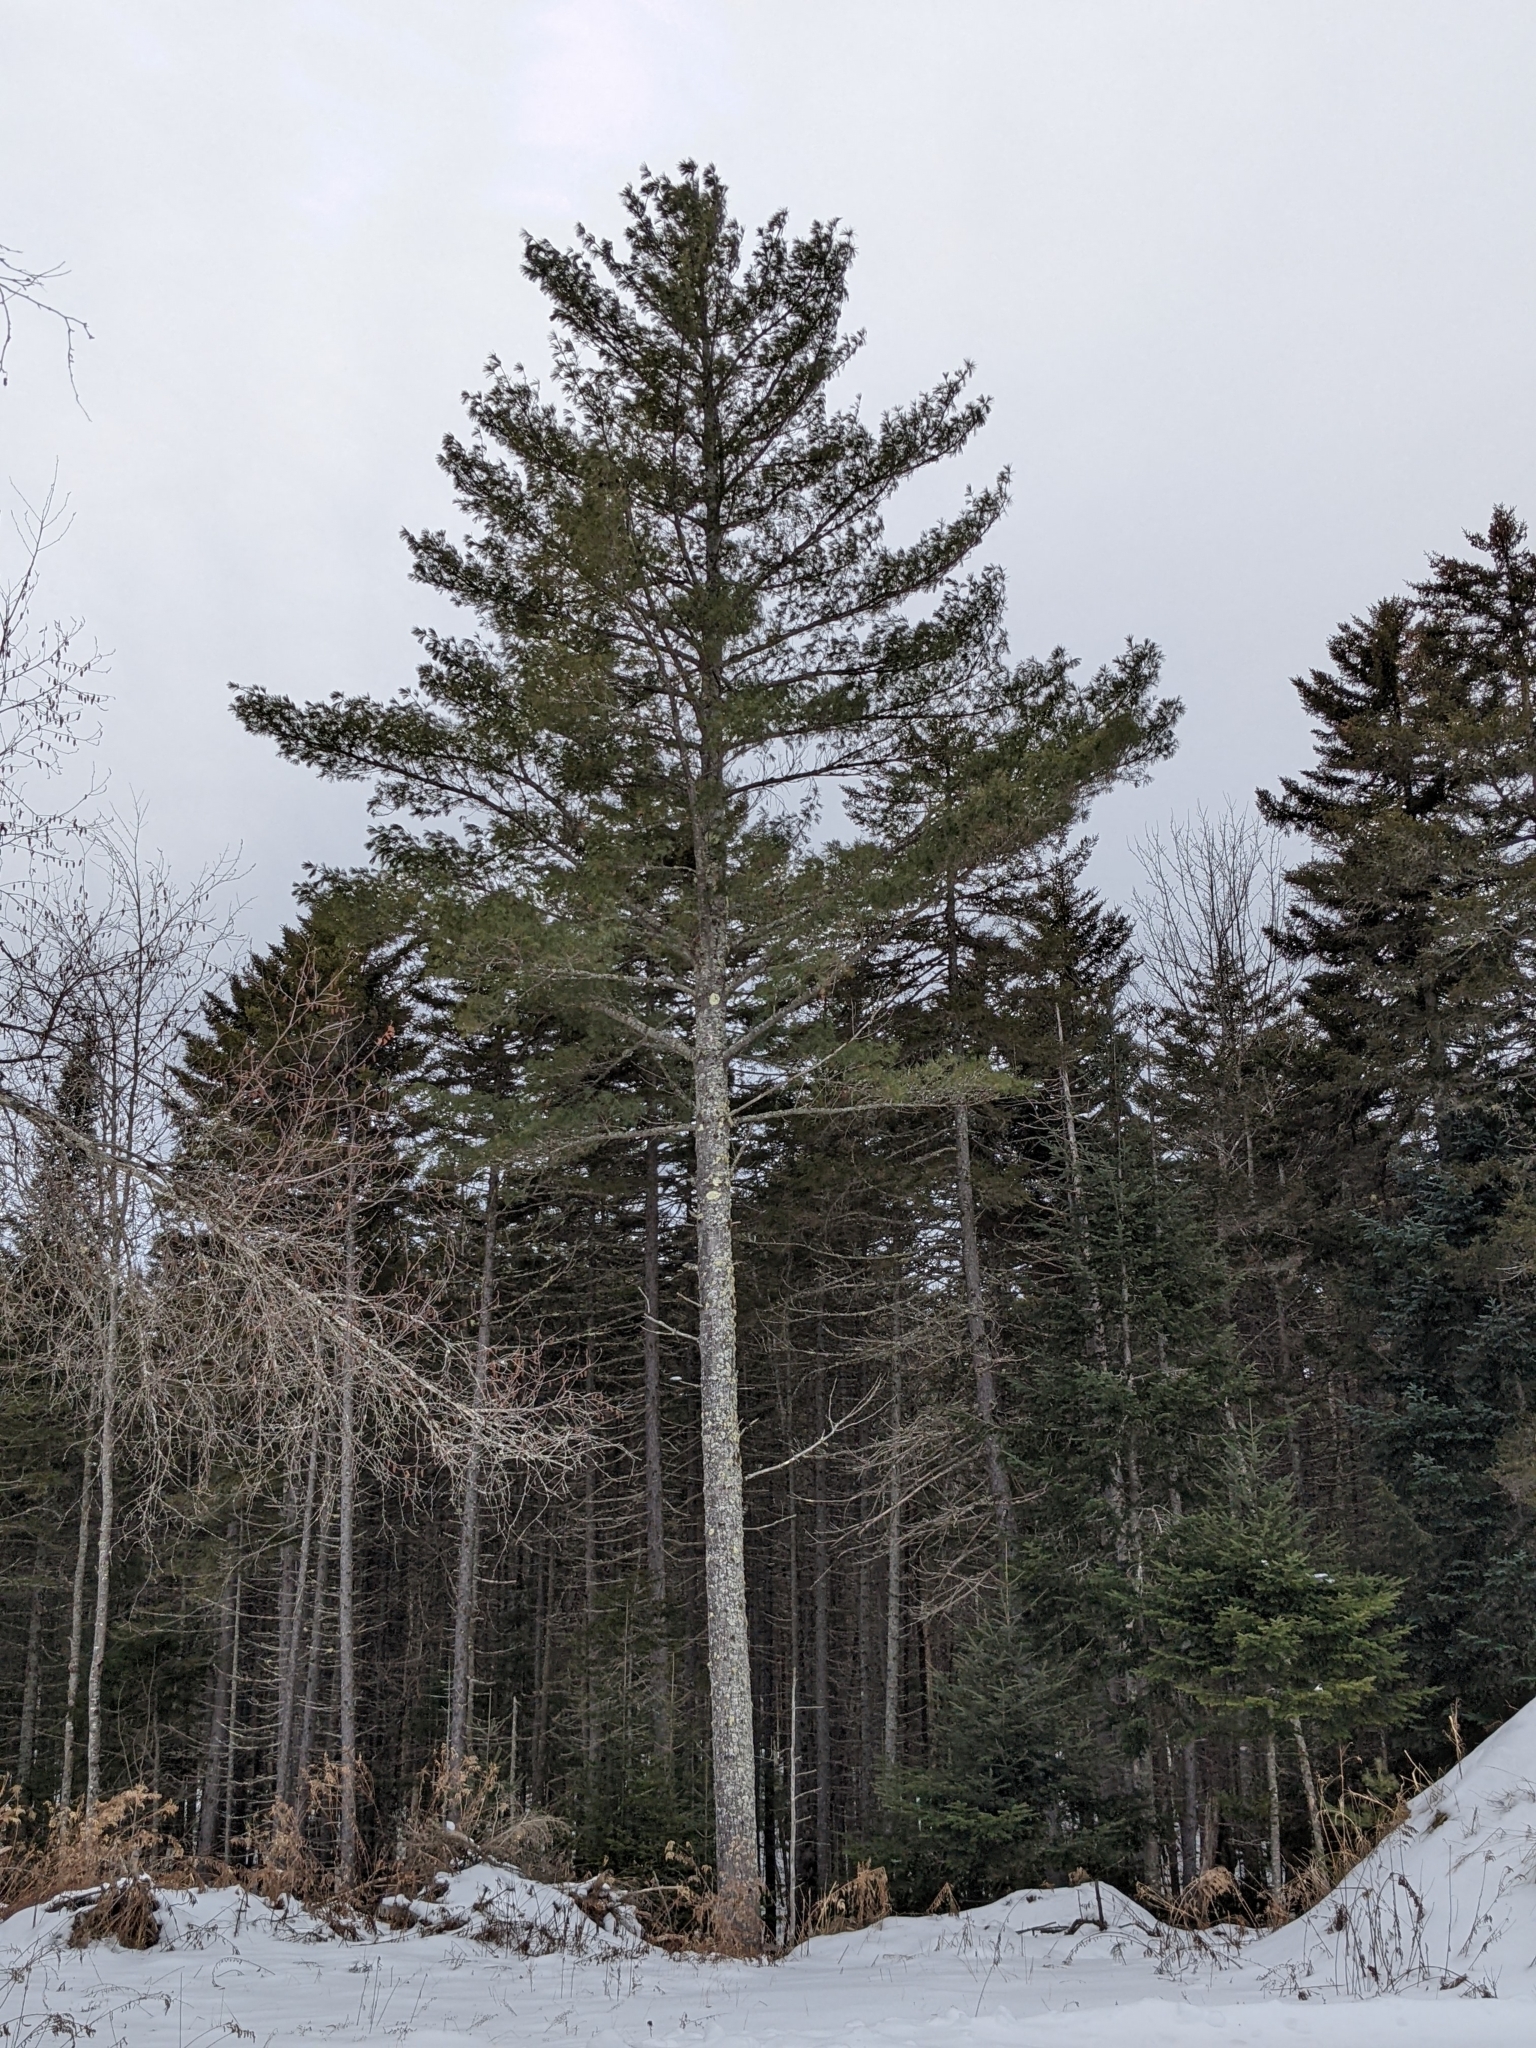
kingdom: Plantae
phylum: Tracheophyta
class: Pinopsida
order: Pinales
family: Pinaceae
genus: Pinus
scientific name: Pinus strobus
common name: Weymouth pine
